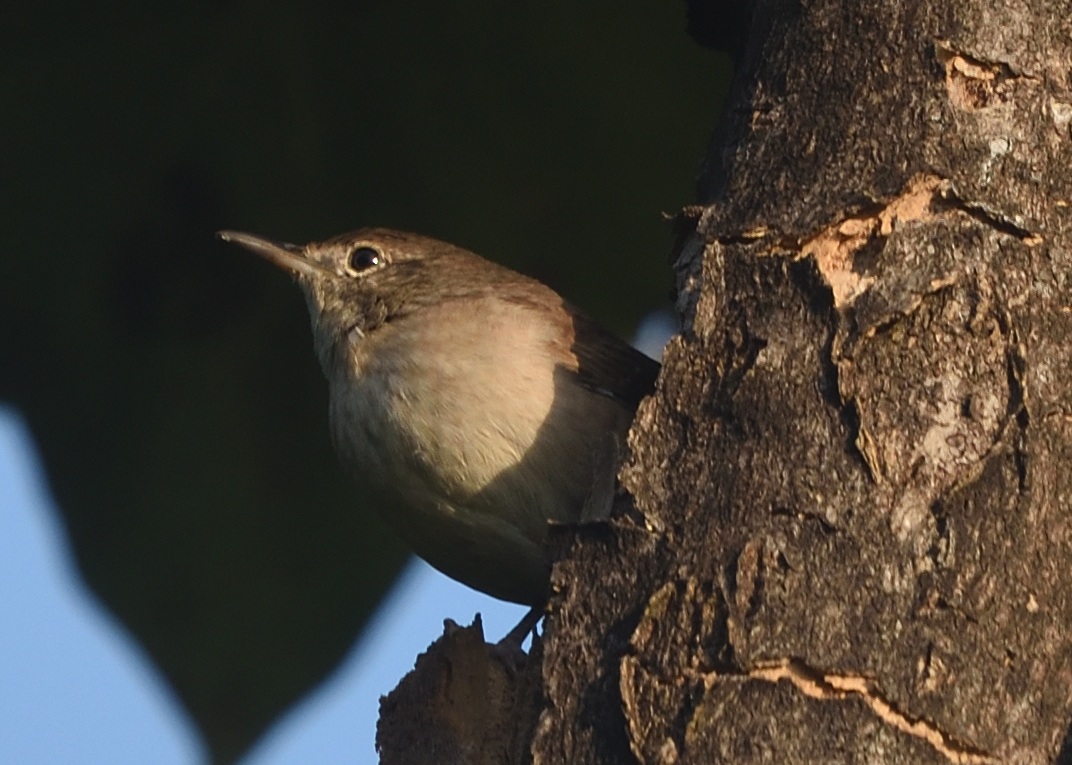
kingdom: Animalia
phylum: Chordata
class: Aves
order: Passeriformes
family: Troglodytidae
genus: Troglodytes
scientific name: Troglodytes aedon
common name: House wren
